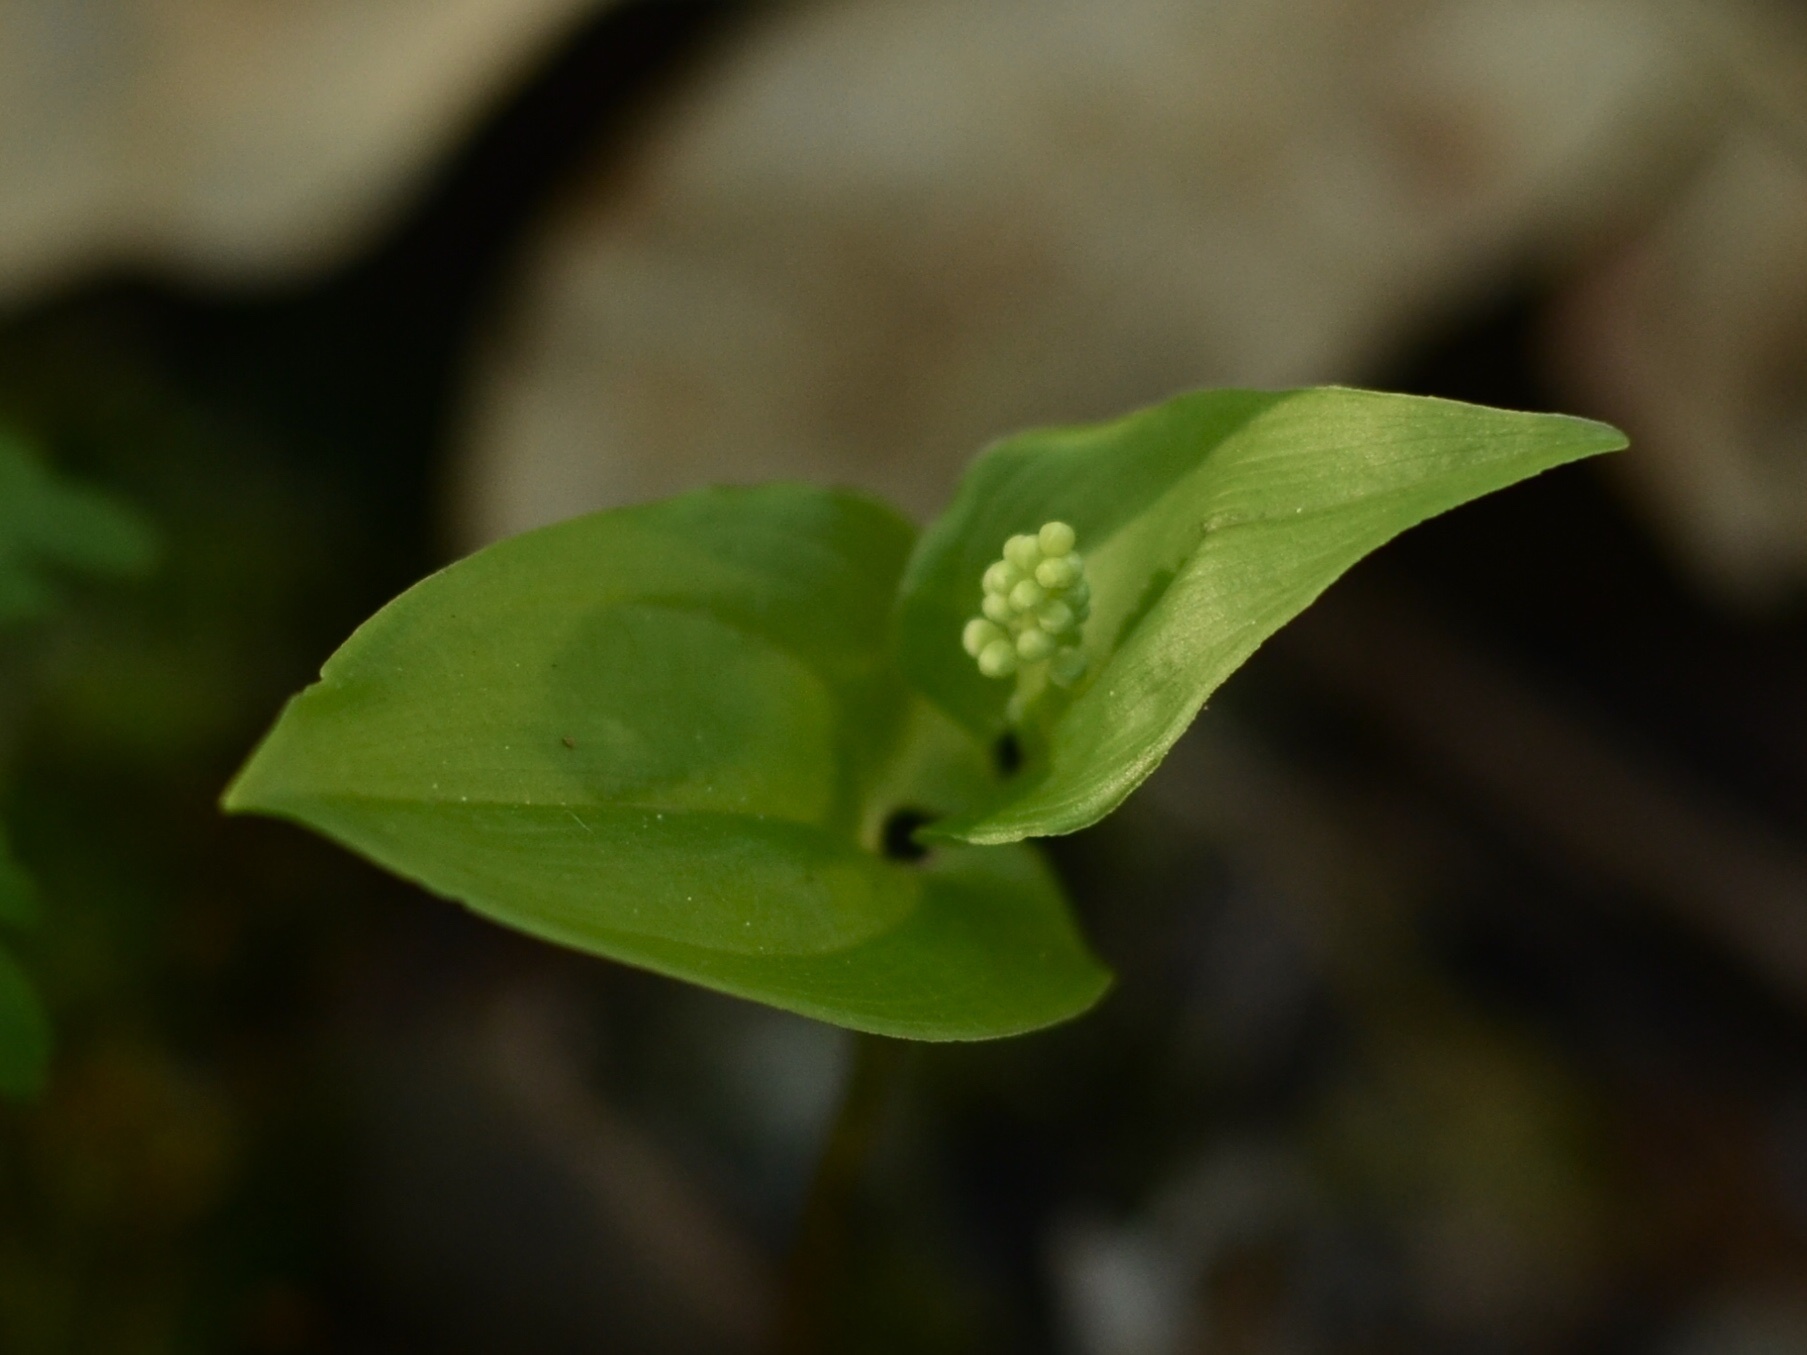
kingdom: Plantae
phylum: Tracheophyta
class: Liliopsida
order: Asparagales
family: Asparagaceae
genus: Maianthemum
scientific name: Maianthemum bifolium
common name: May lily
